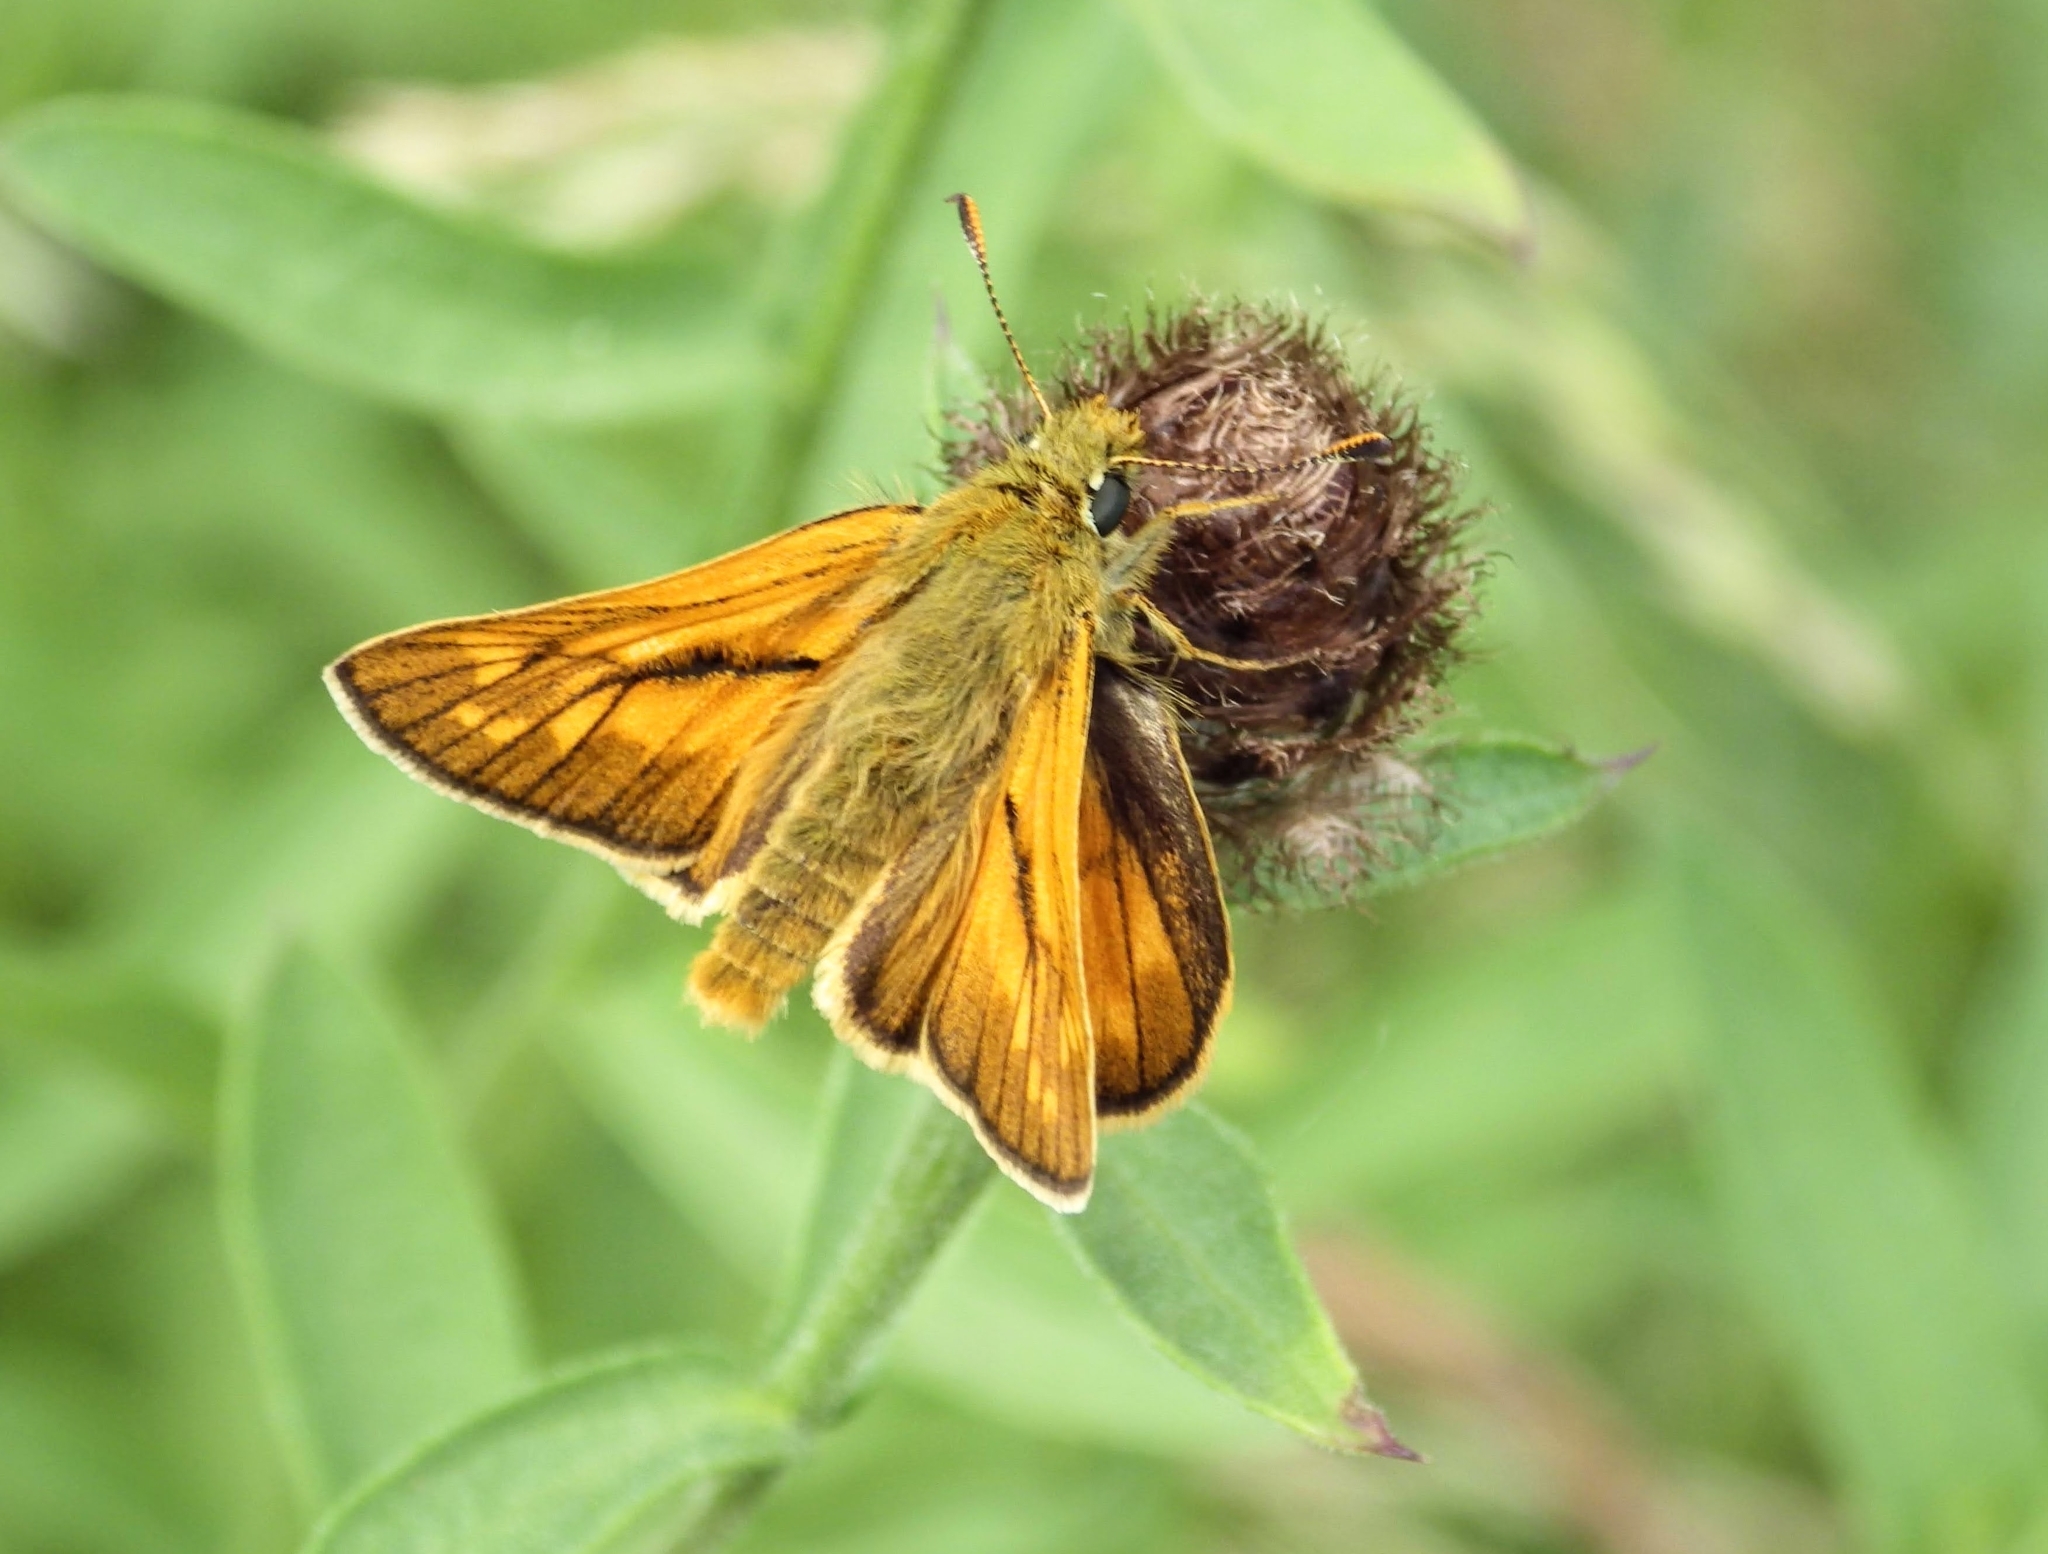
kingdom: Animalia
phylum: Arthropoda
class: Insecta
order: Lepidoptera
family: Hesperiidae
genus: Ochlodes
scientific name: Ochlodes venata
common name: Large skipper
